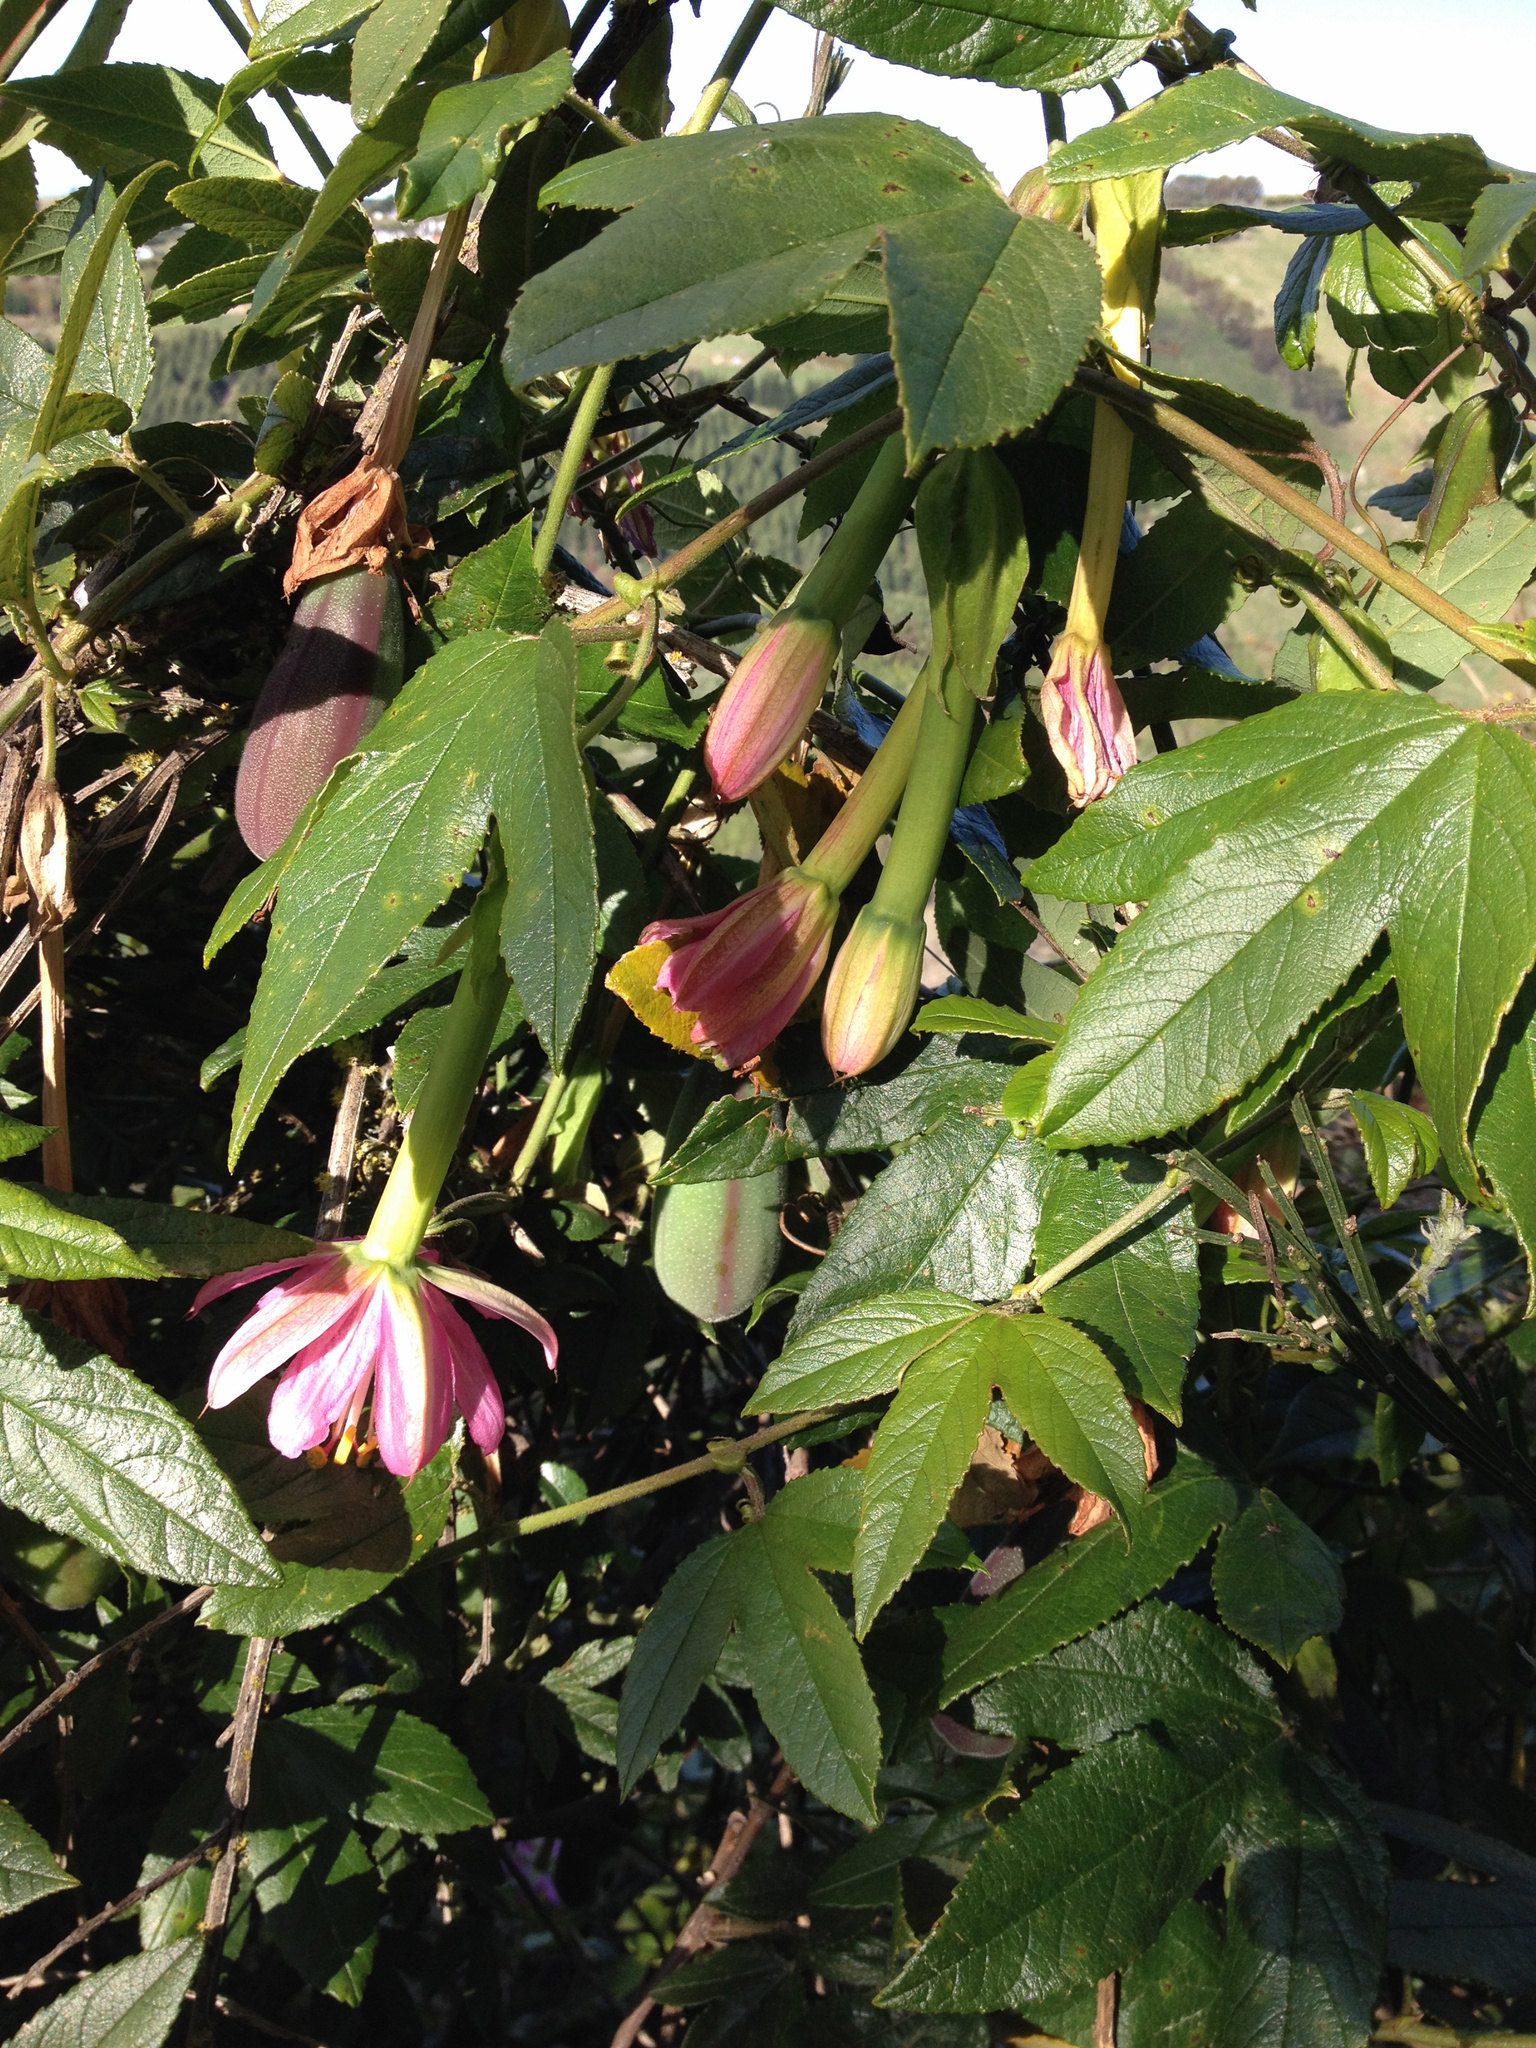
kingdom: Plantae
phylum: Tracheophyta
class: Magnoliopsida
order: Malpighiales
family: Passifloraceae
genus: Passiflora
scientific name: Passiflora tripartita
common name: Banana poka
